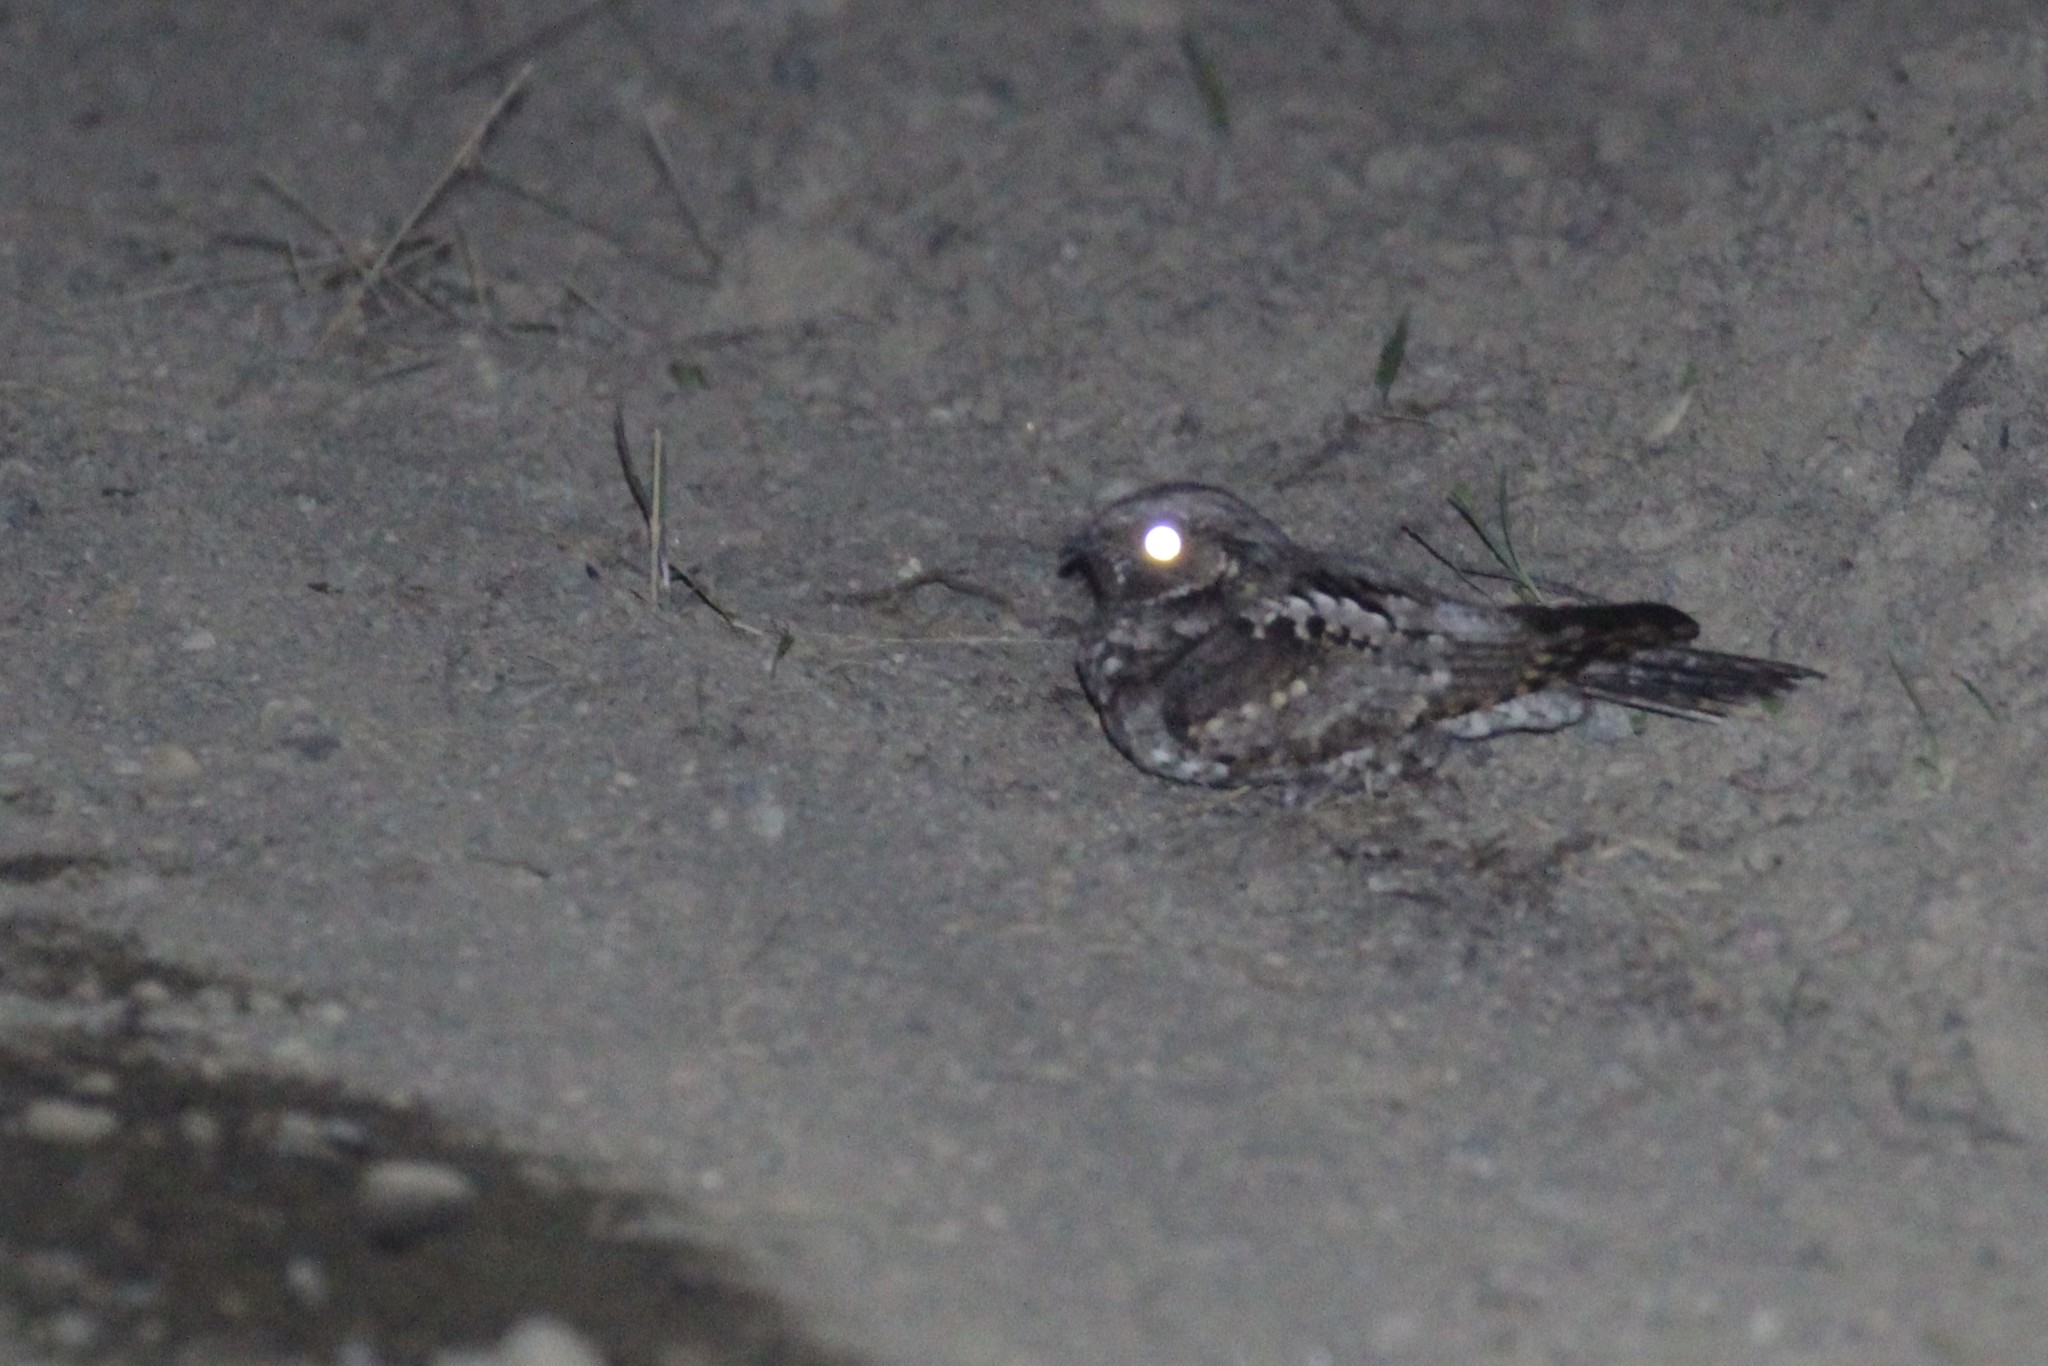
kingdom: Animalia
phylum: Chordata
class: Aves
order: Caprimulgiformes
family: Caprimulgidae
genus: Antrostomus
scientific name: Antrostomus vociferus
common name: Eastern whip-poor-will
